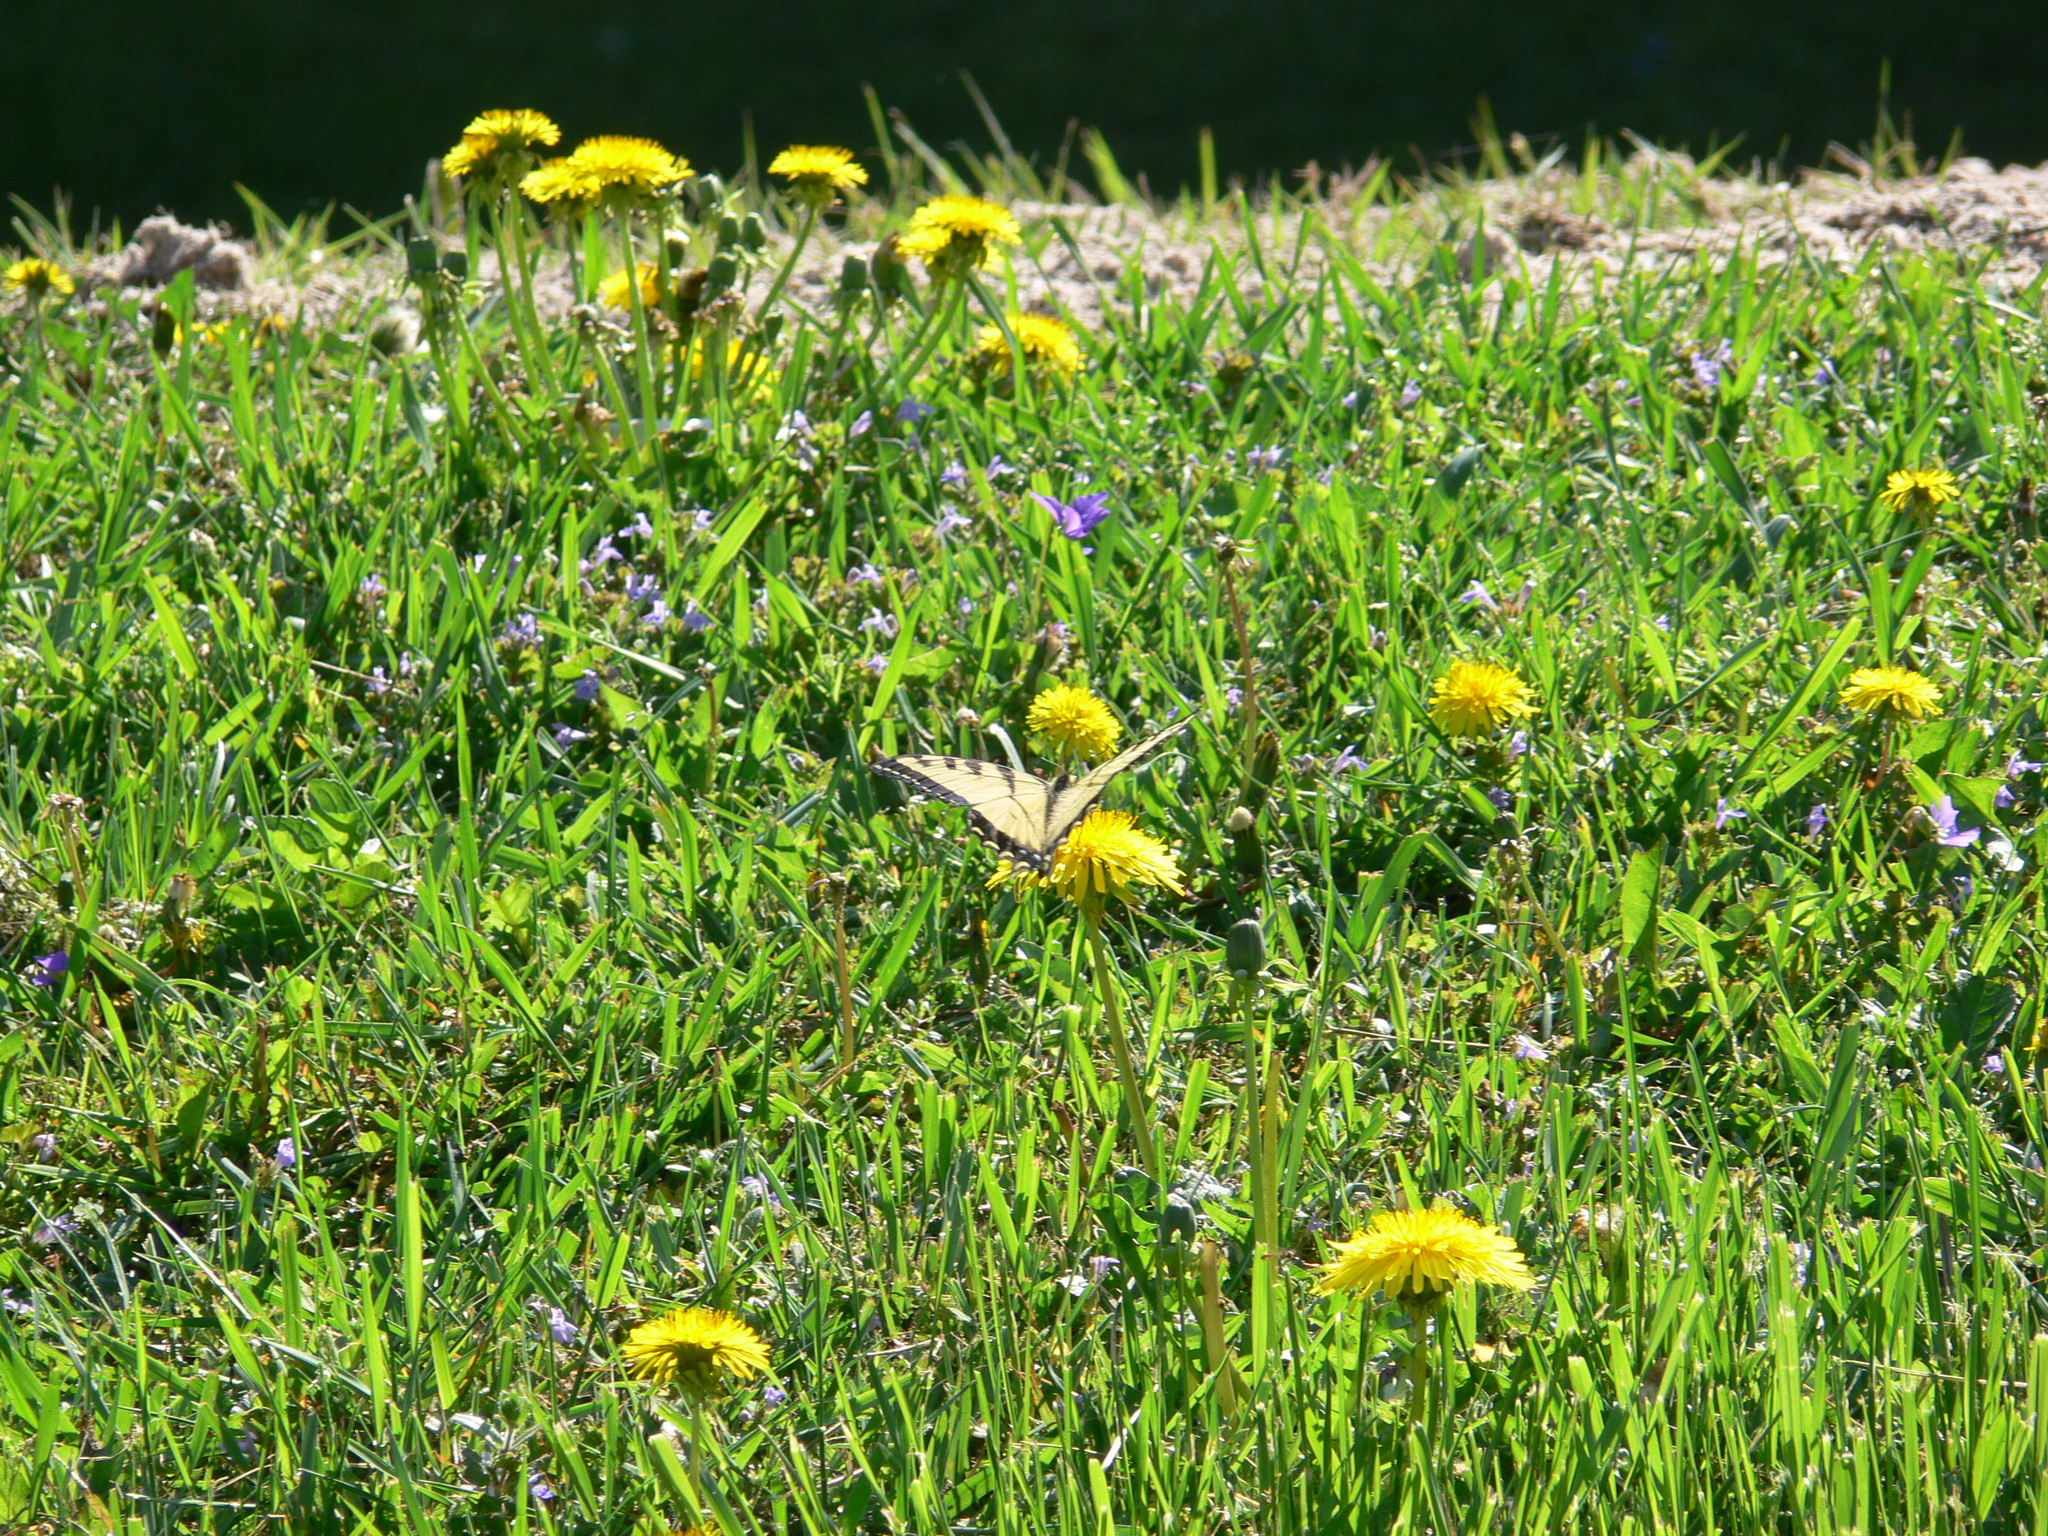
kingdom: Animalia
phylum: Arthropoda
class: Insecta
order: Lepidoptera
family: Papilionidae
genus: Papilio
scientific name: Papilio glaucus
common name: Tiger swallowtail
